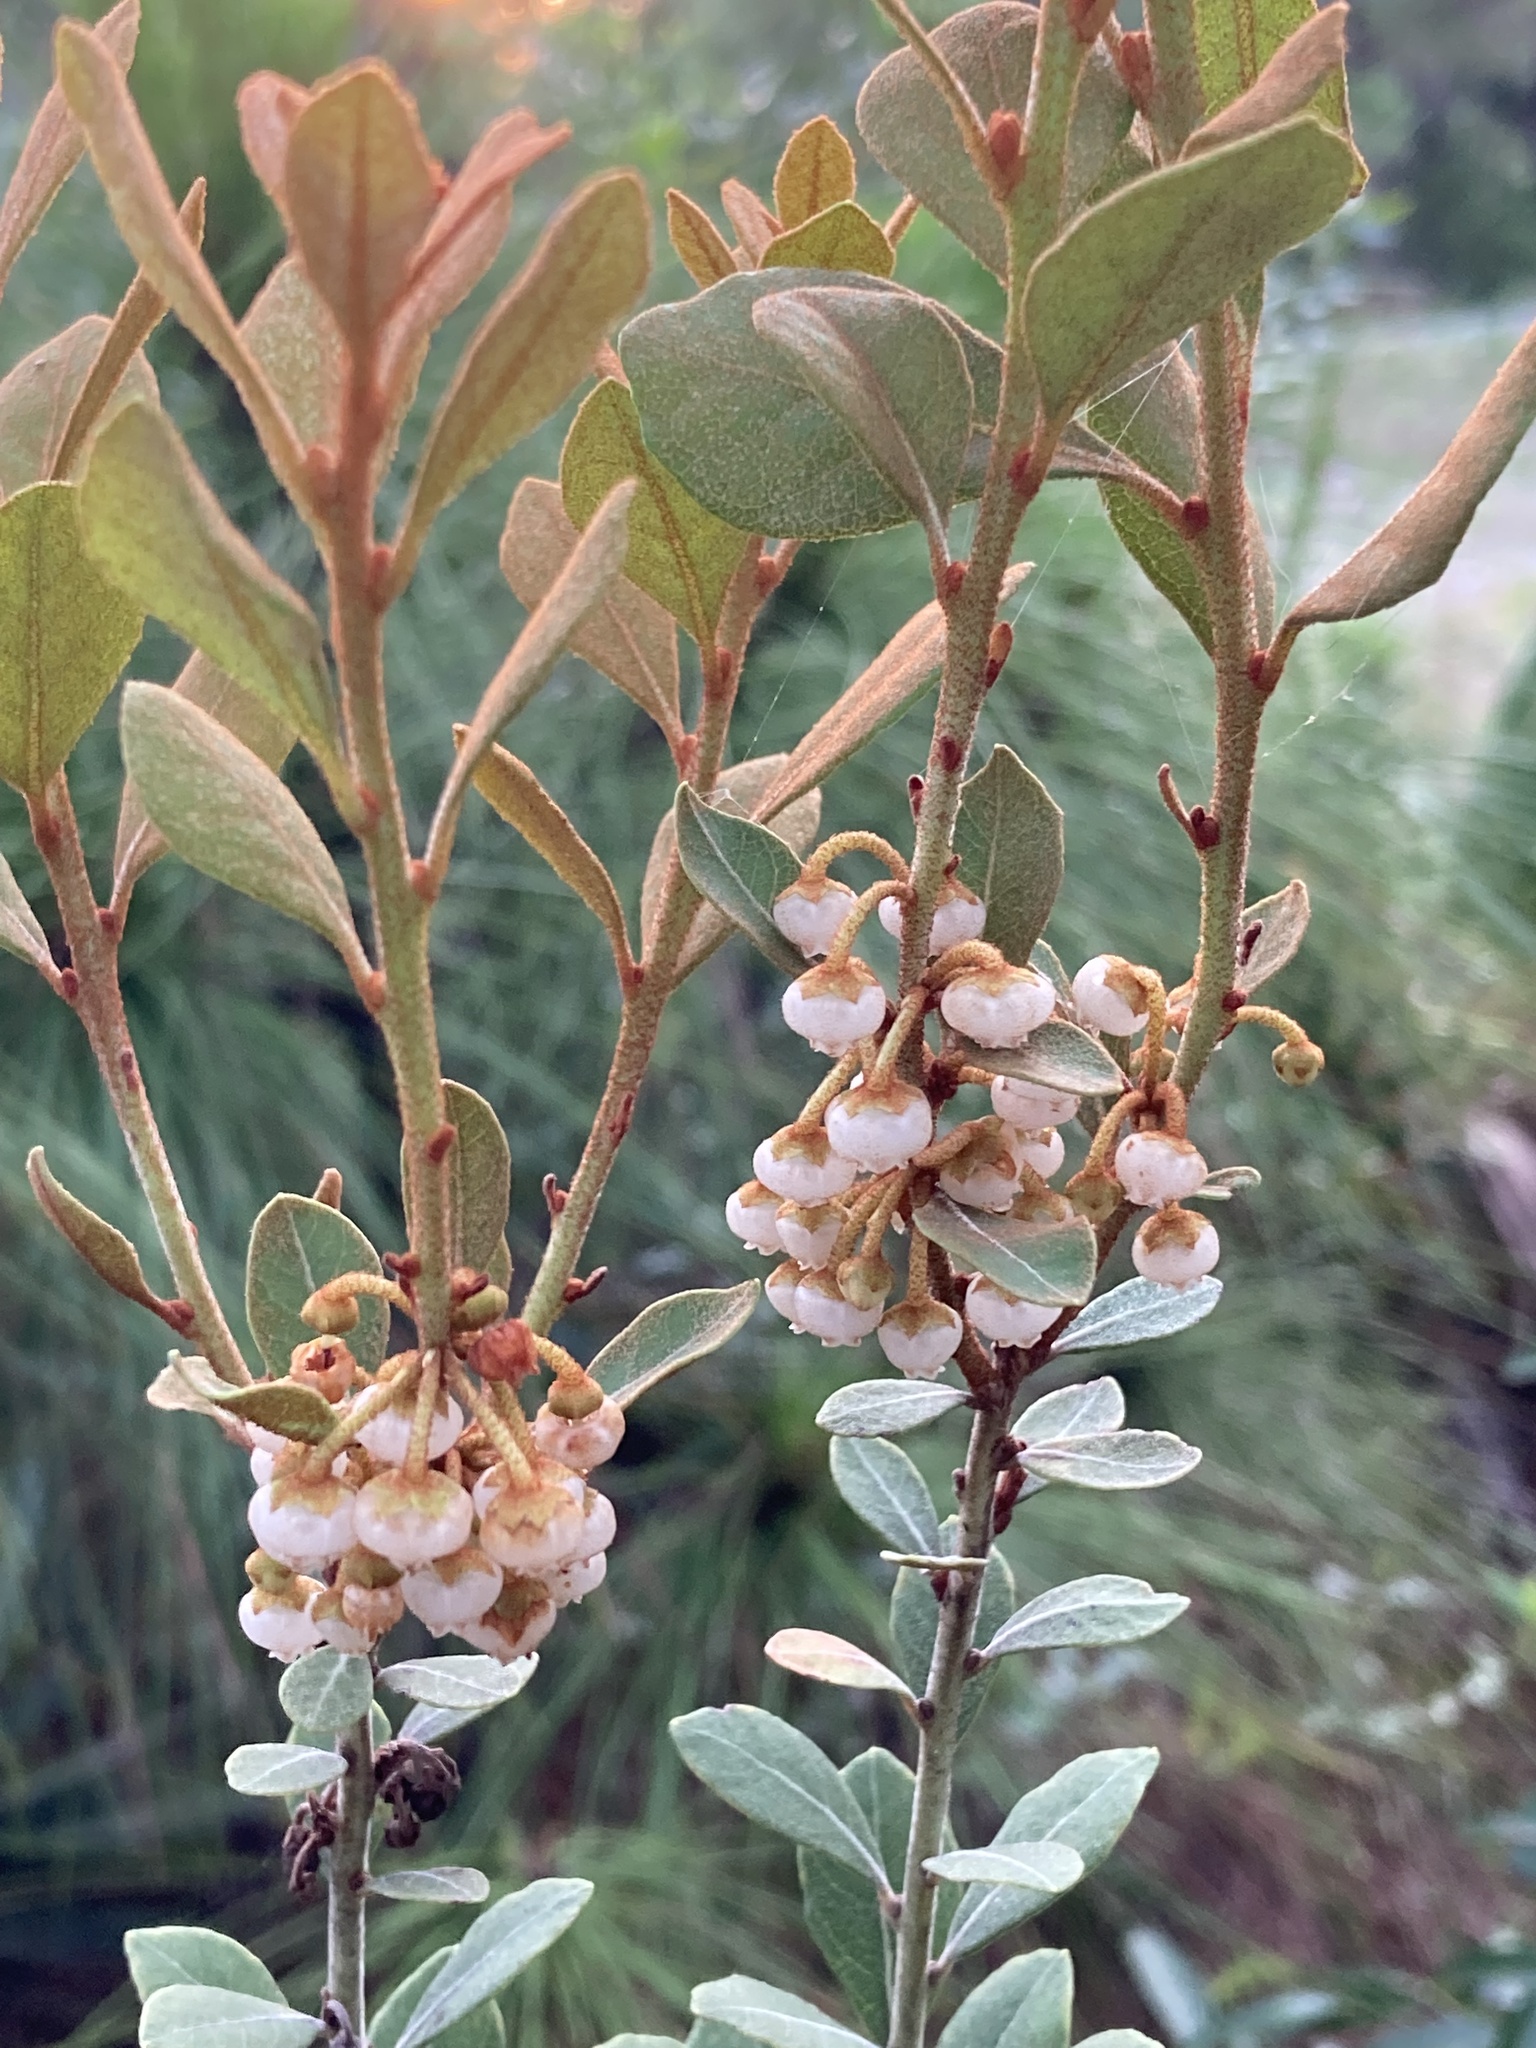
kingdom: Plantae
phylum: Tracheophyta
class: Magnoliopsida
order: Ericales
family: Ericaceae
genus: Lyonia
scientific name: Lyonia fruticosa
